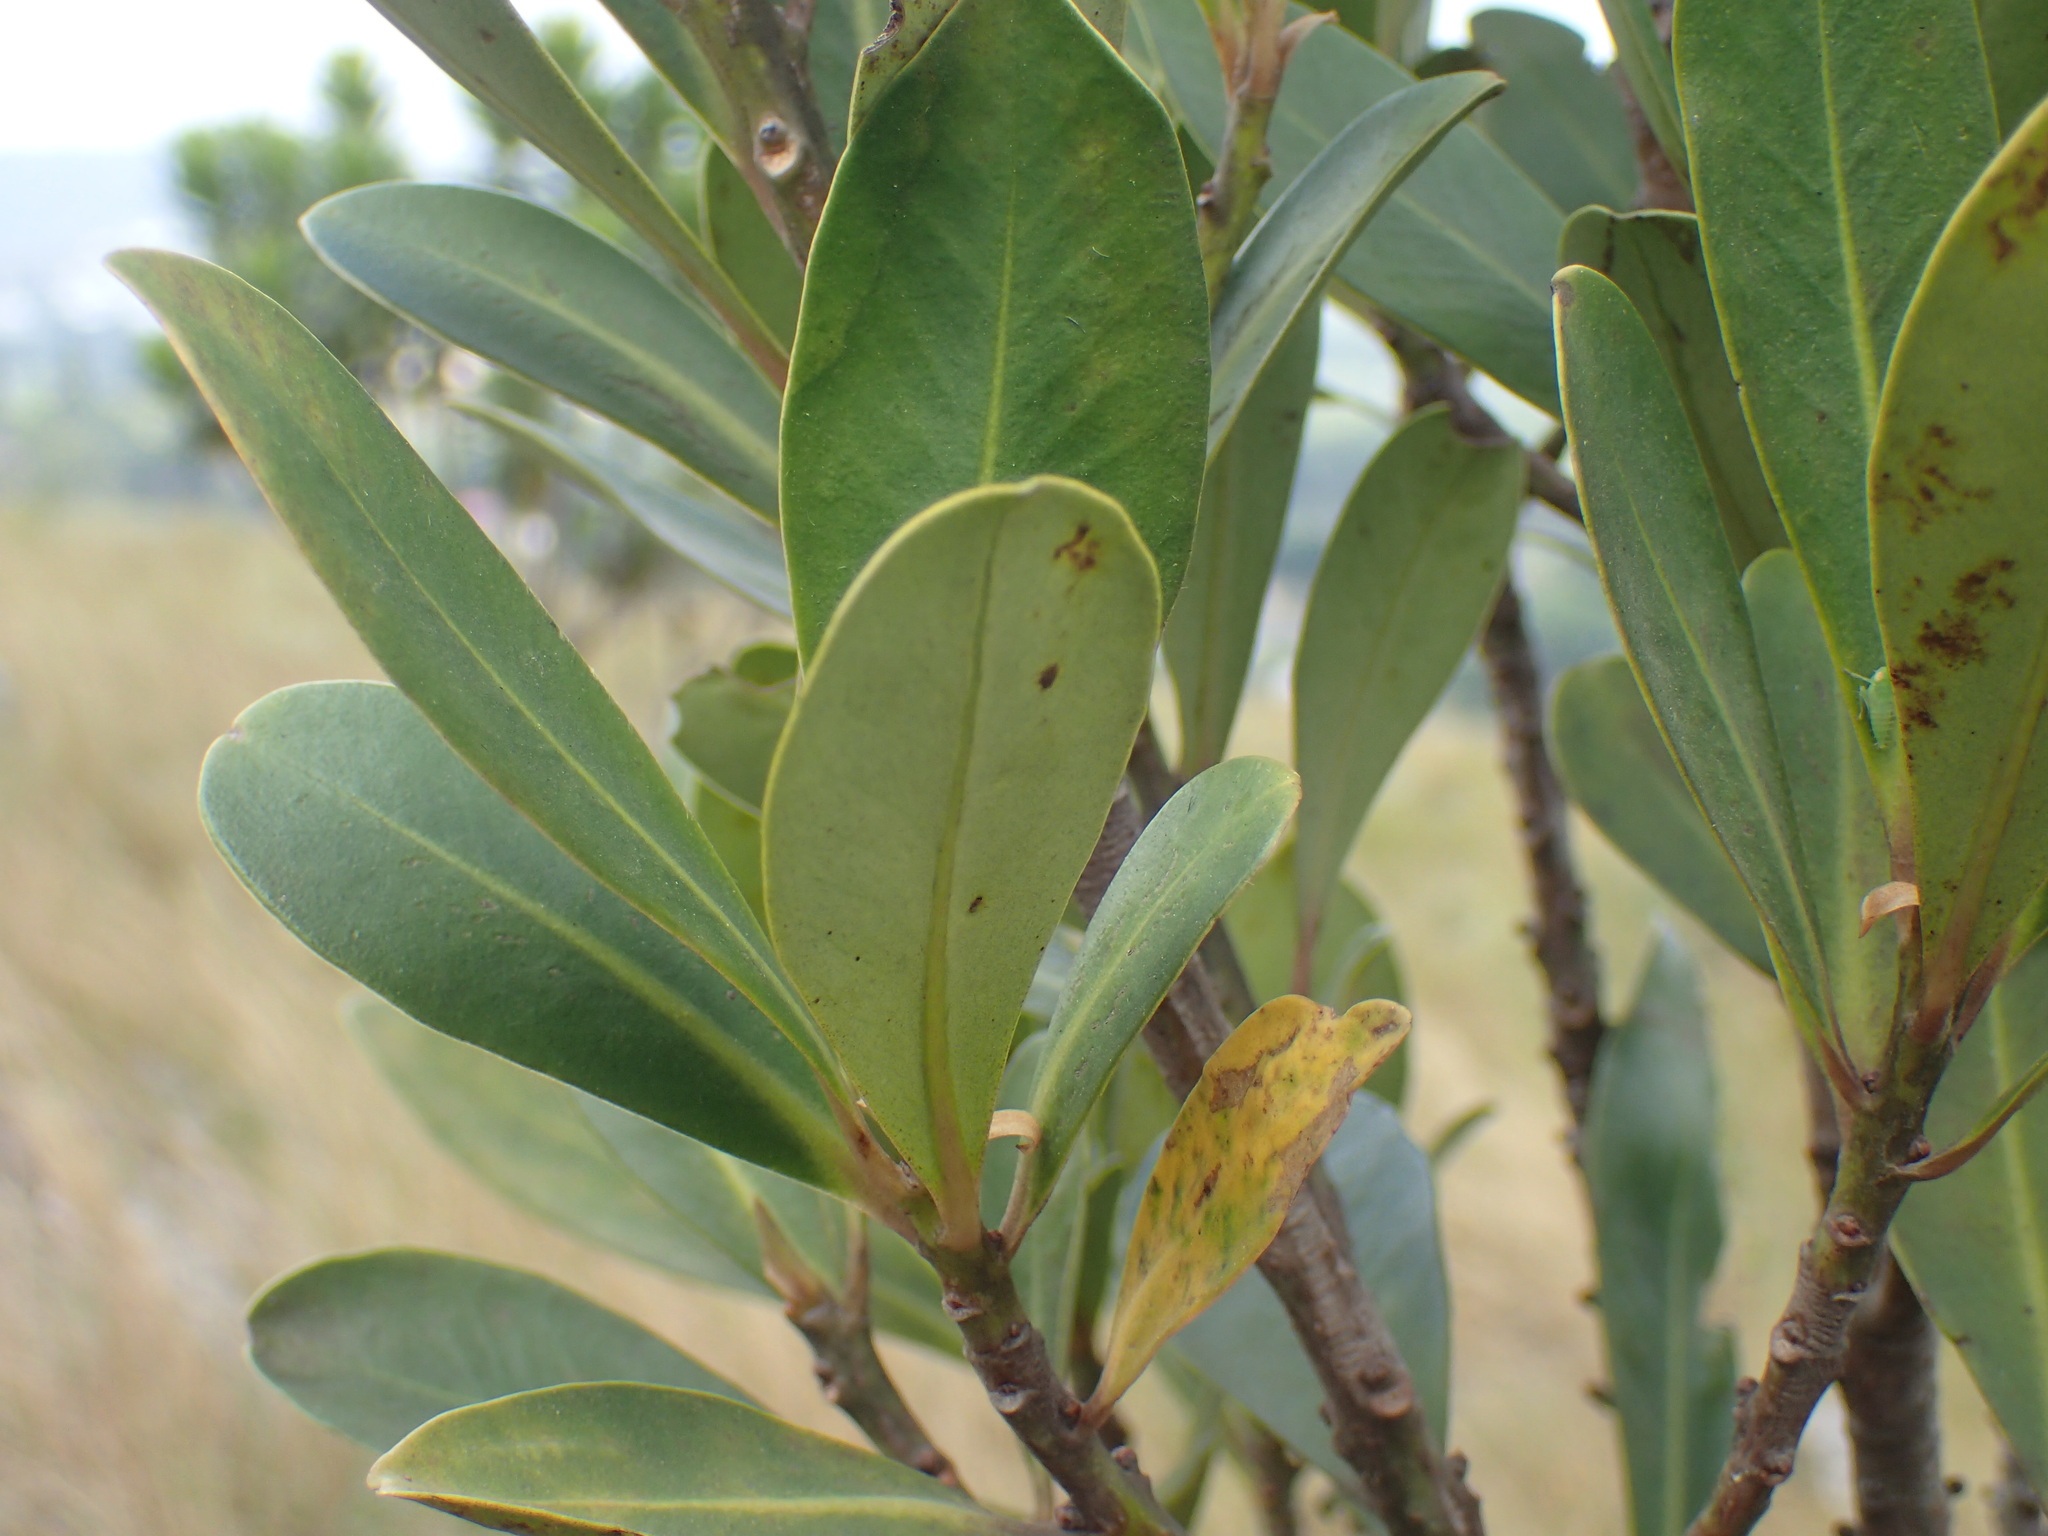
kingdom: Plantae
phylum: Tracheophyta
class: Magnoliopsida
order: Ericales
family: Primulaceae
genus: Myrsine
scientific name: Myrsine melanophloeos
